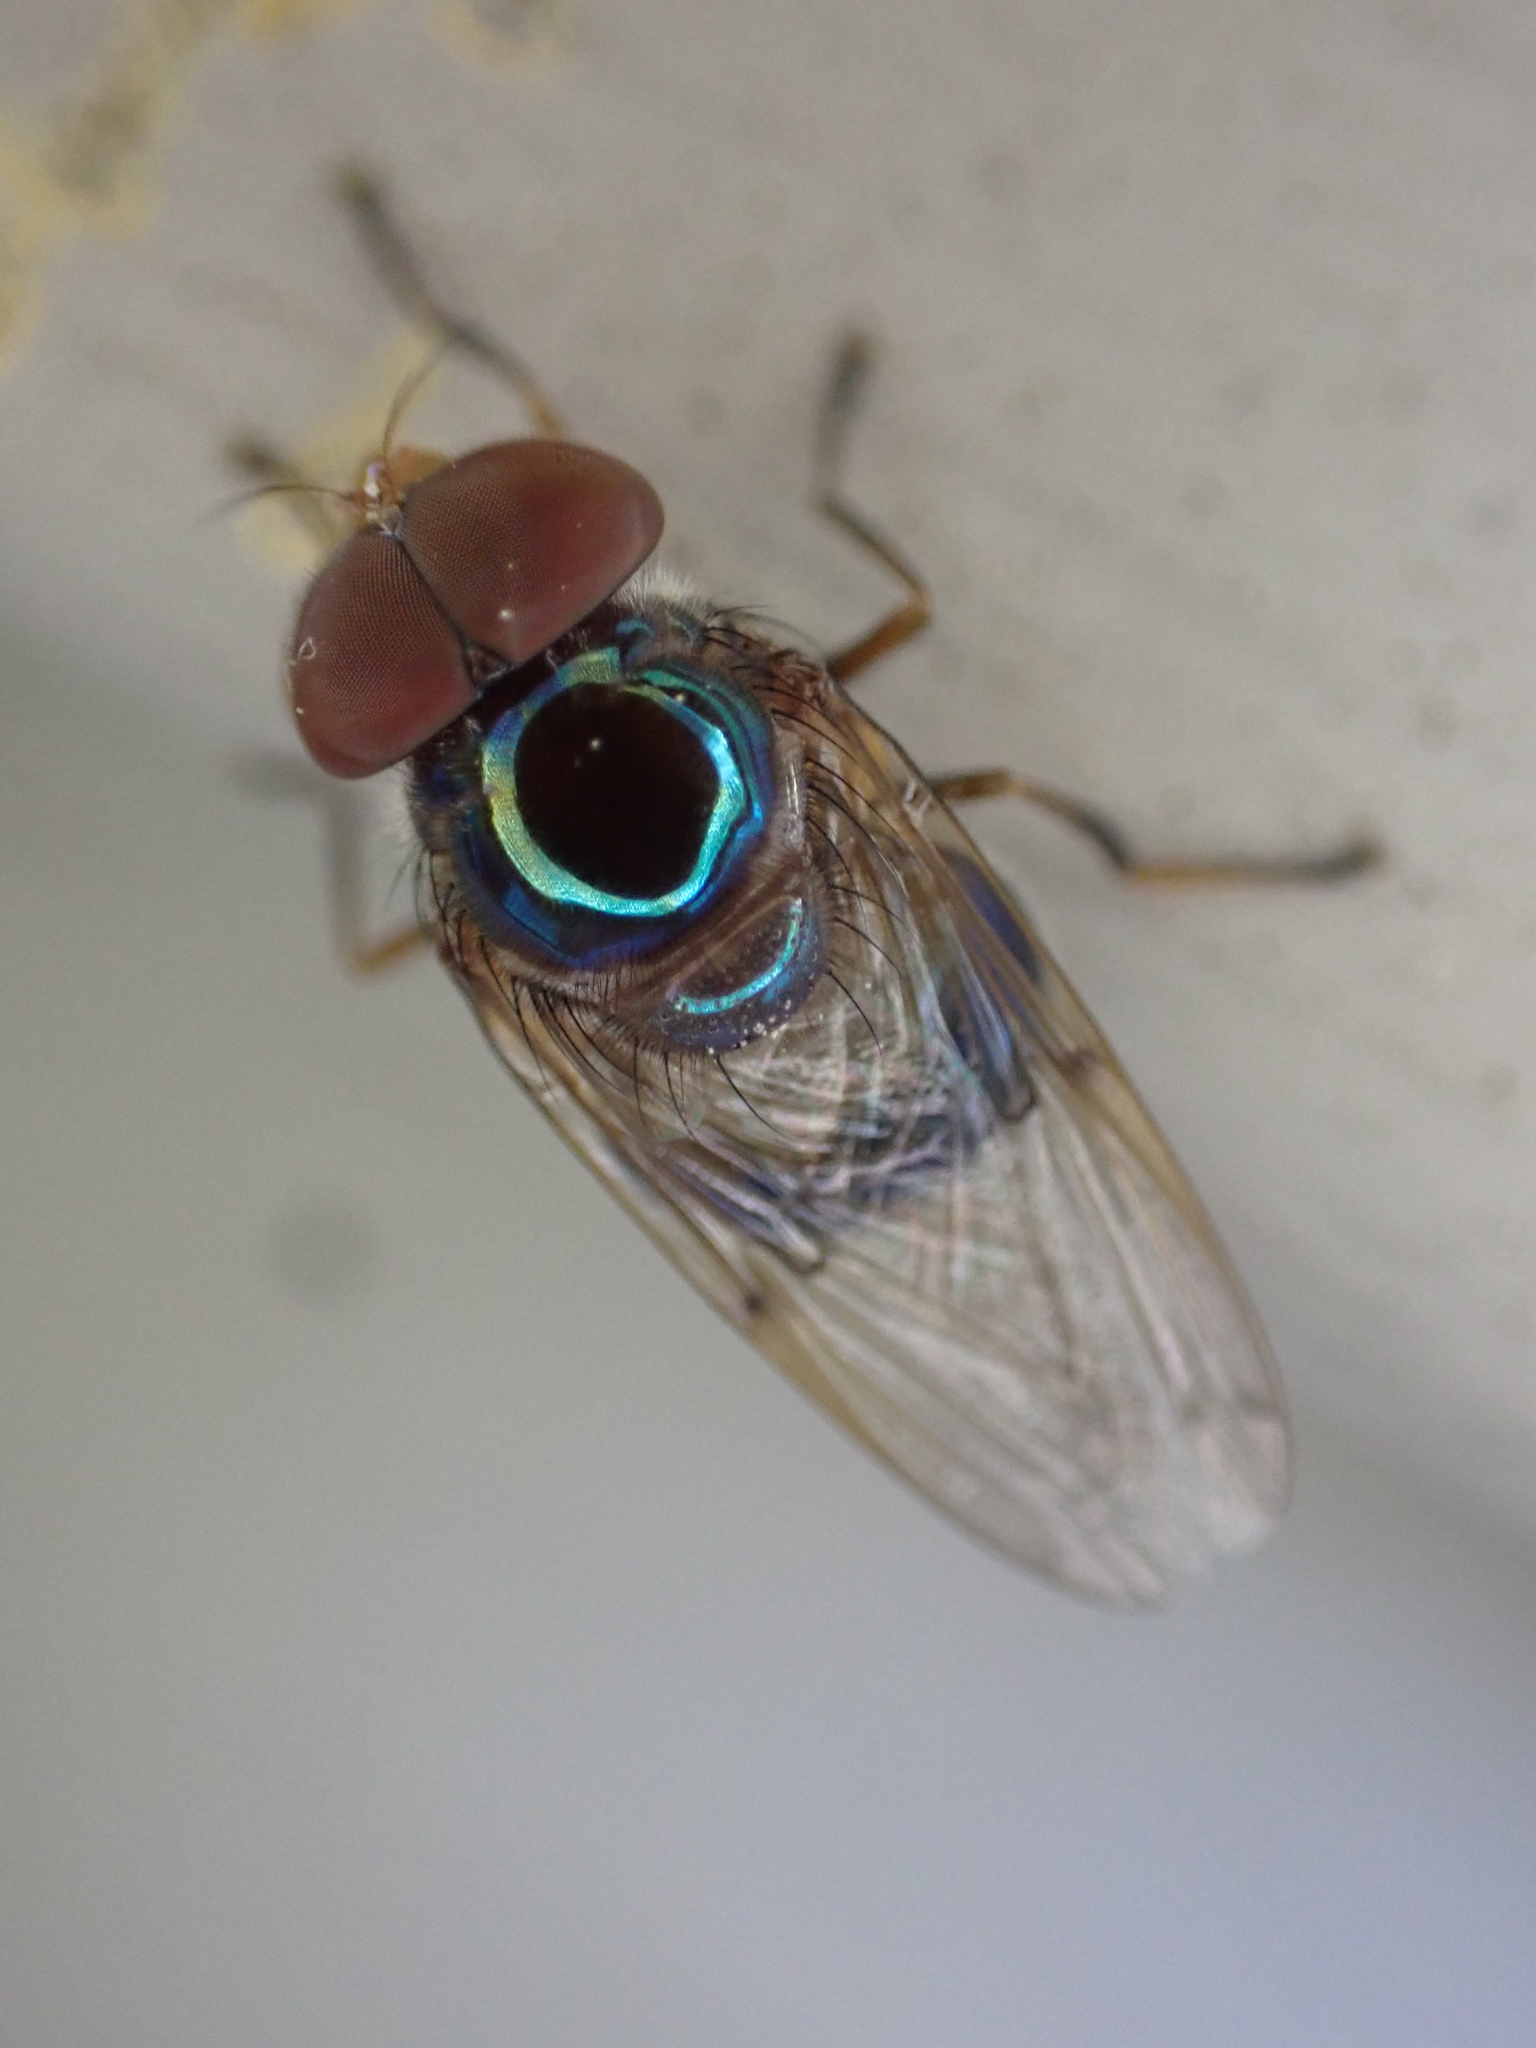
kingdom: Animalia
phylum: Arthropoda
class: Insecta
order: Diptera
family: Syrphidae
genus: Copestylum
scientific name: Copestylum vesicularium
